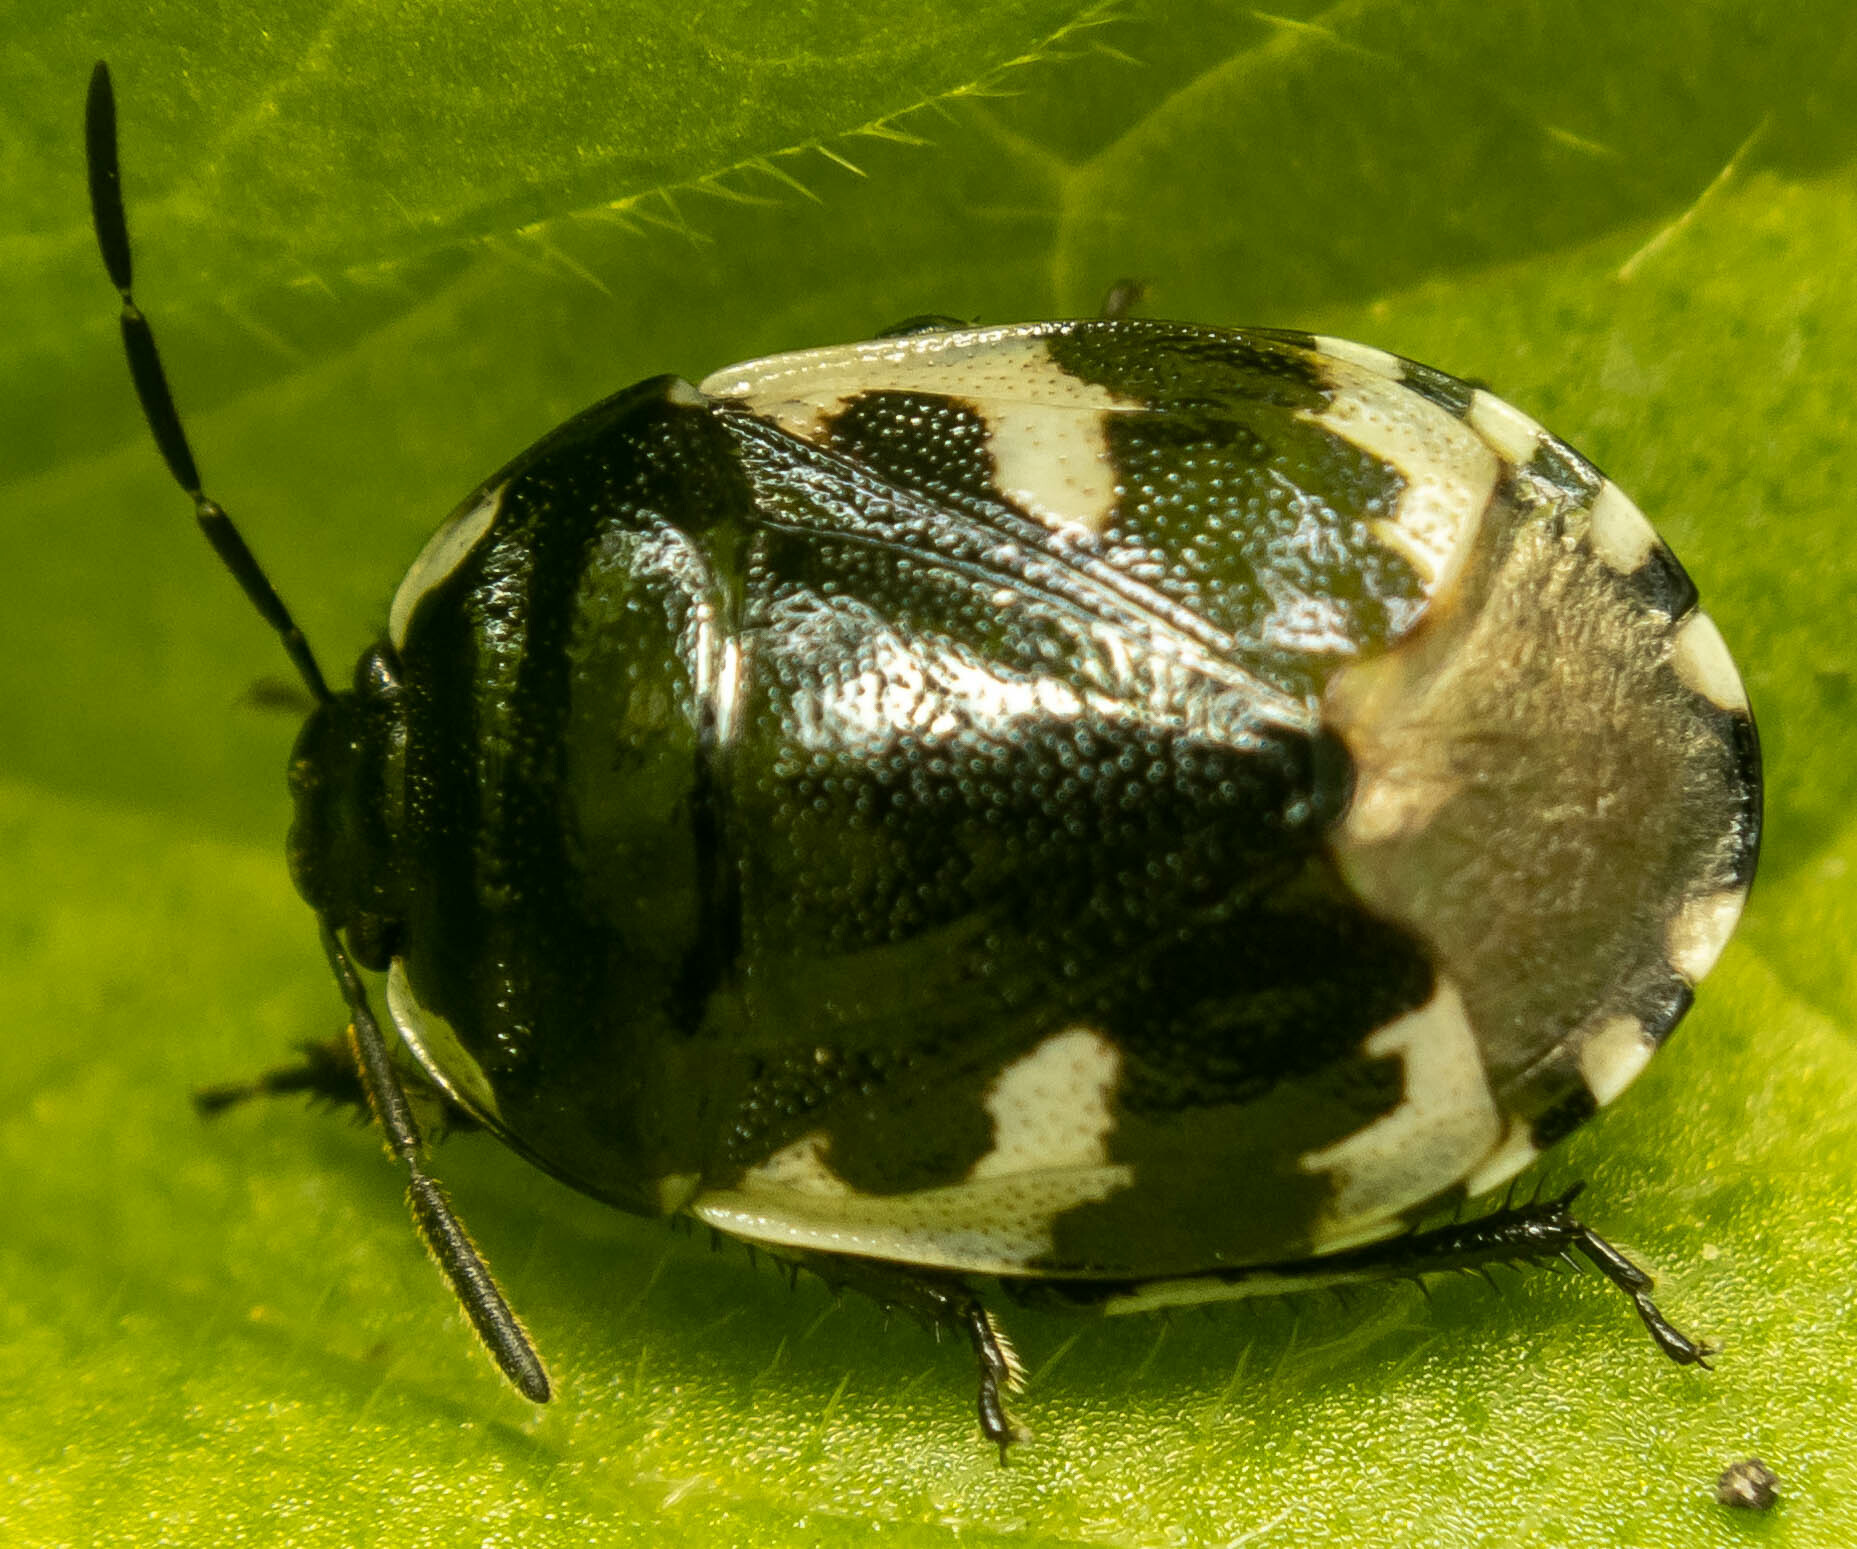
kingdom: Animalia
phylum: Arthropoda
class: Insecta
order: Hemiptera
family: Cydnidae
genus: Tritomegas
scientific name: Tritomegas bicolor
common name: Pied shieldbug
